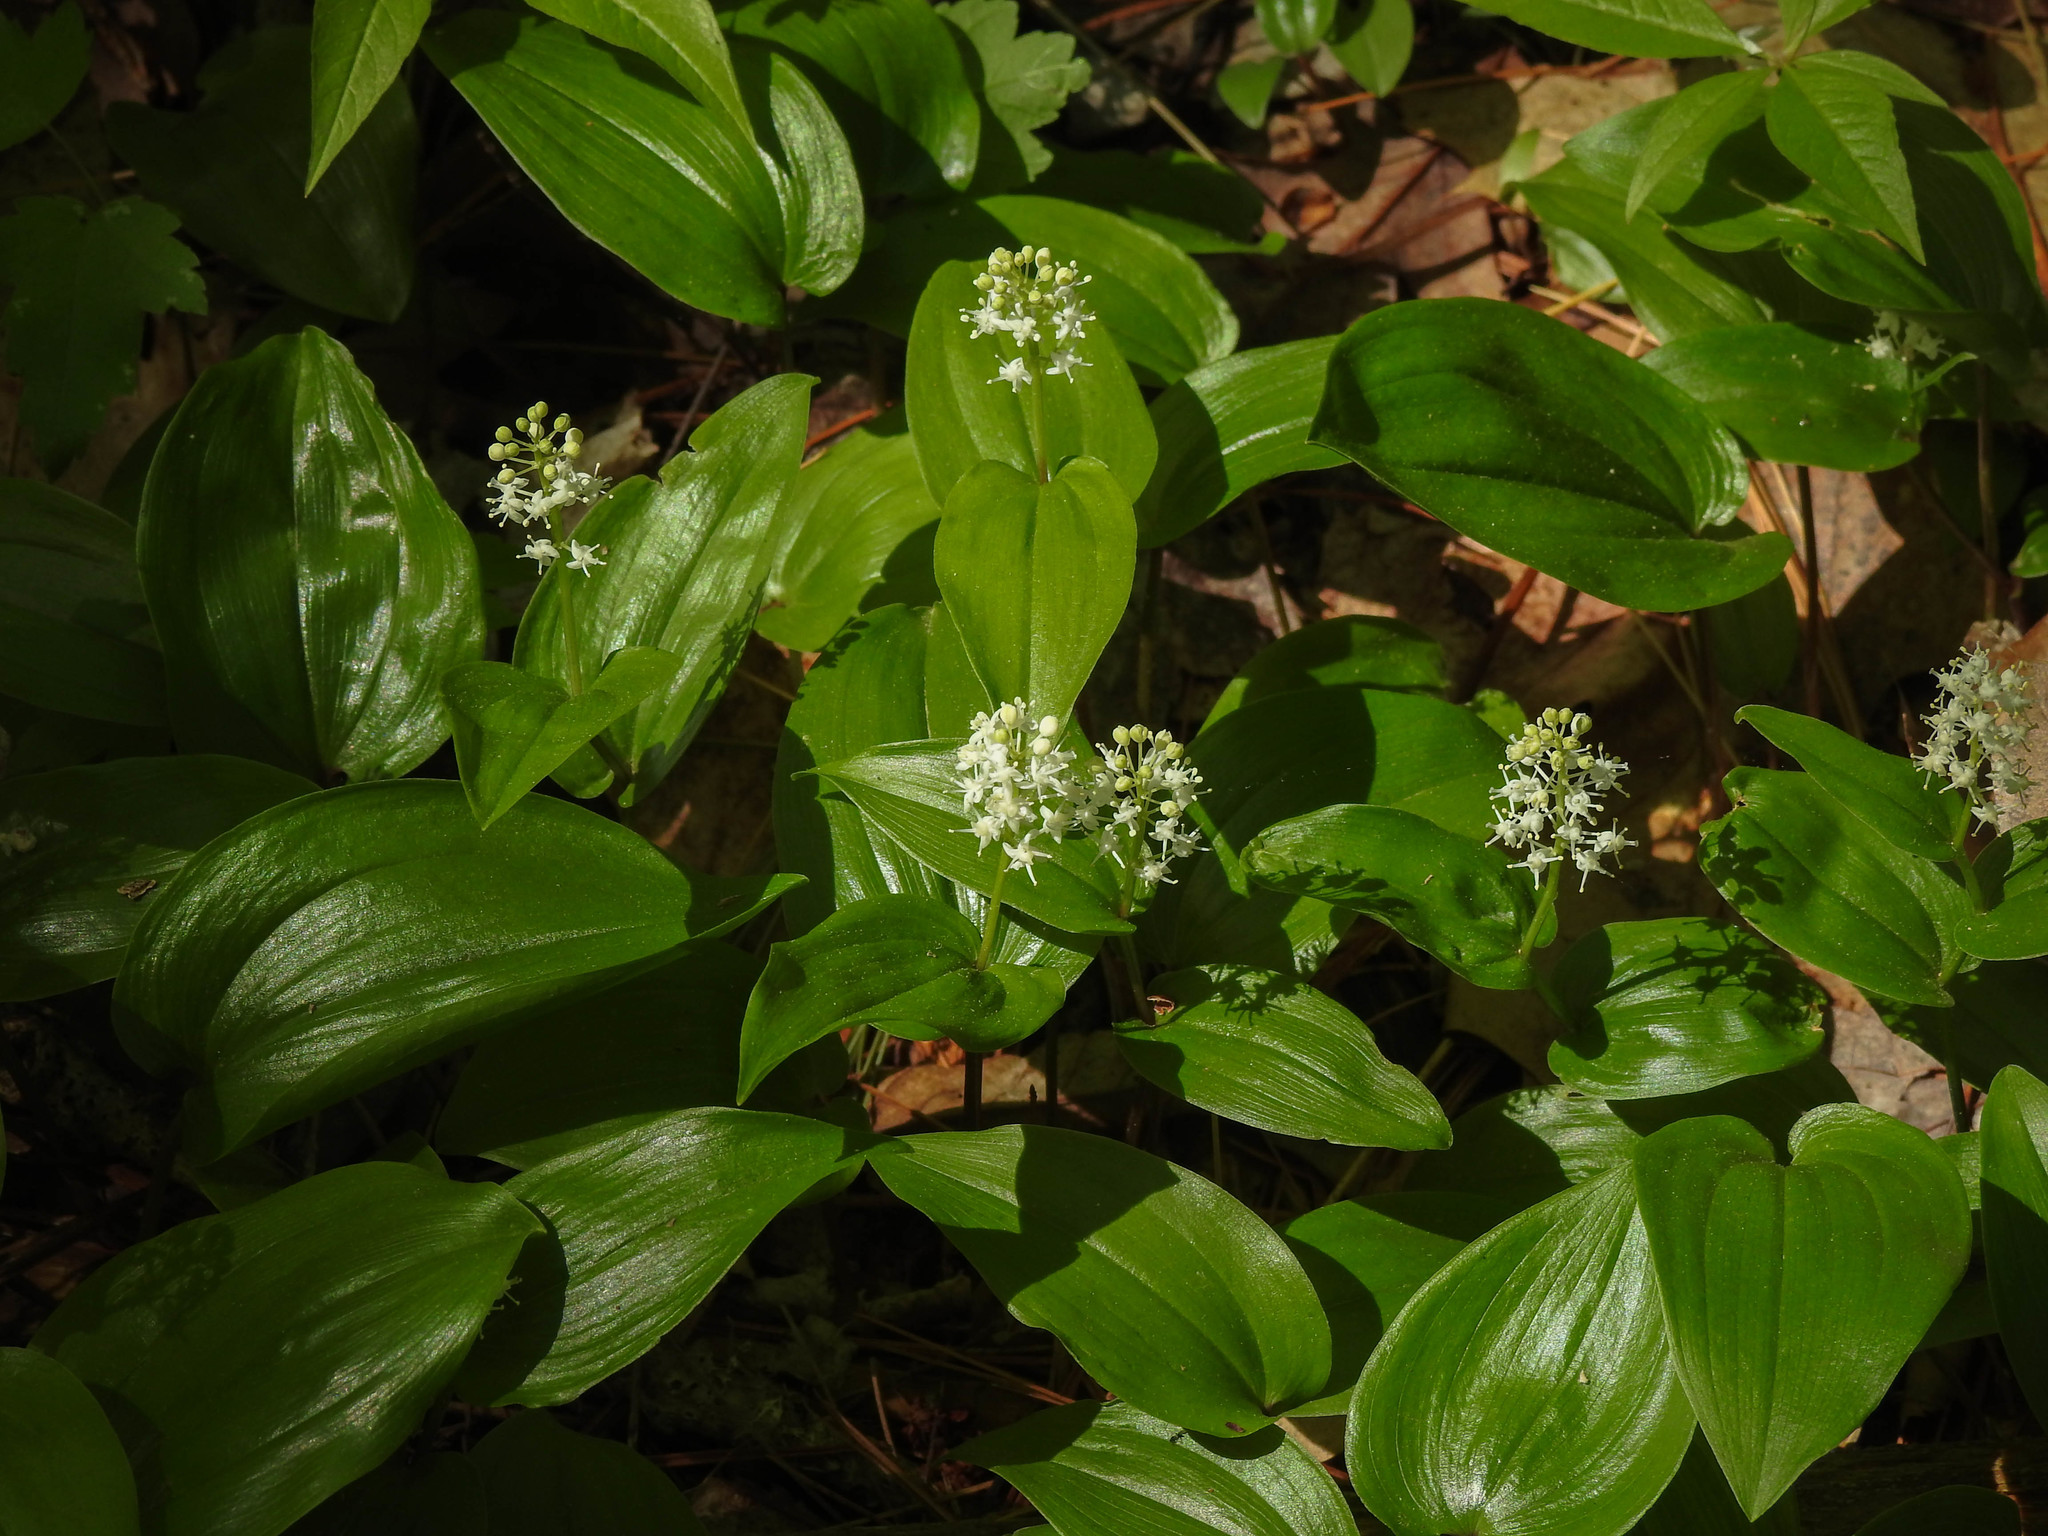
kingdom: Plantae
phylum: Tracheophyta
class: Liliopsida
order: Asparagales
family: Asparagaceae
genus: Maianthemum
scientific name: Maianthemum canadense
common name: False lily-of-the-valley
